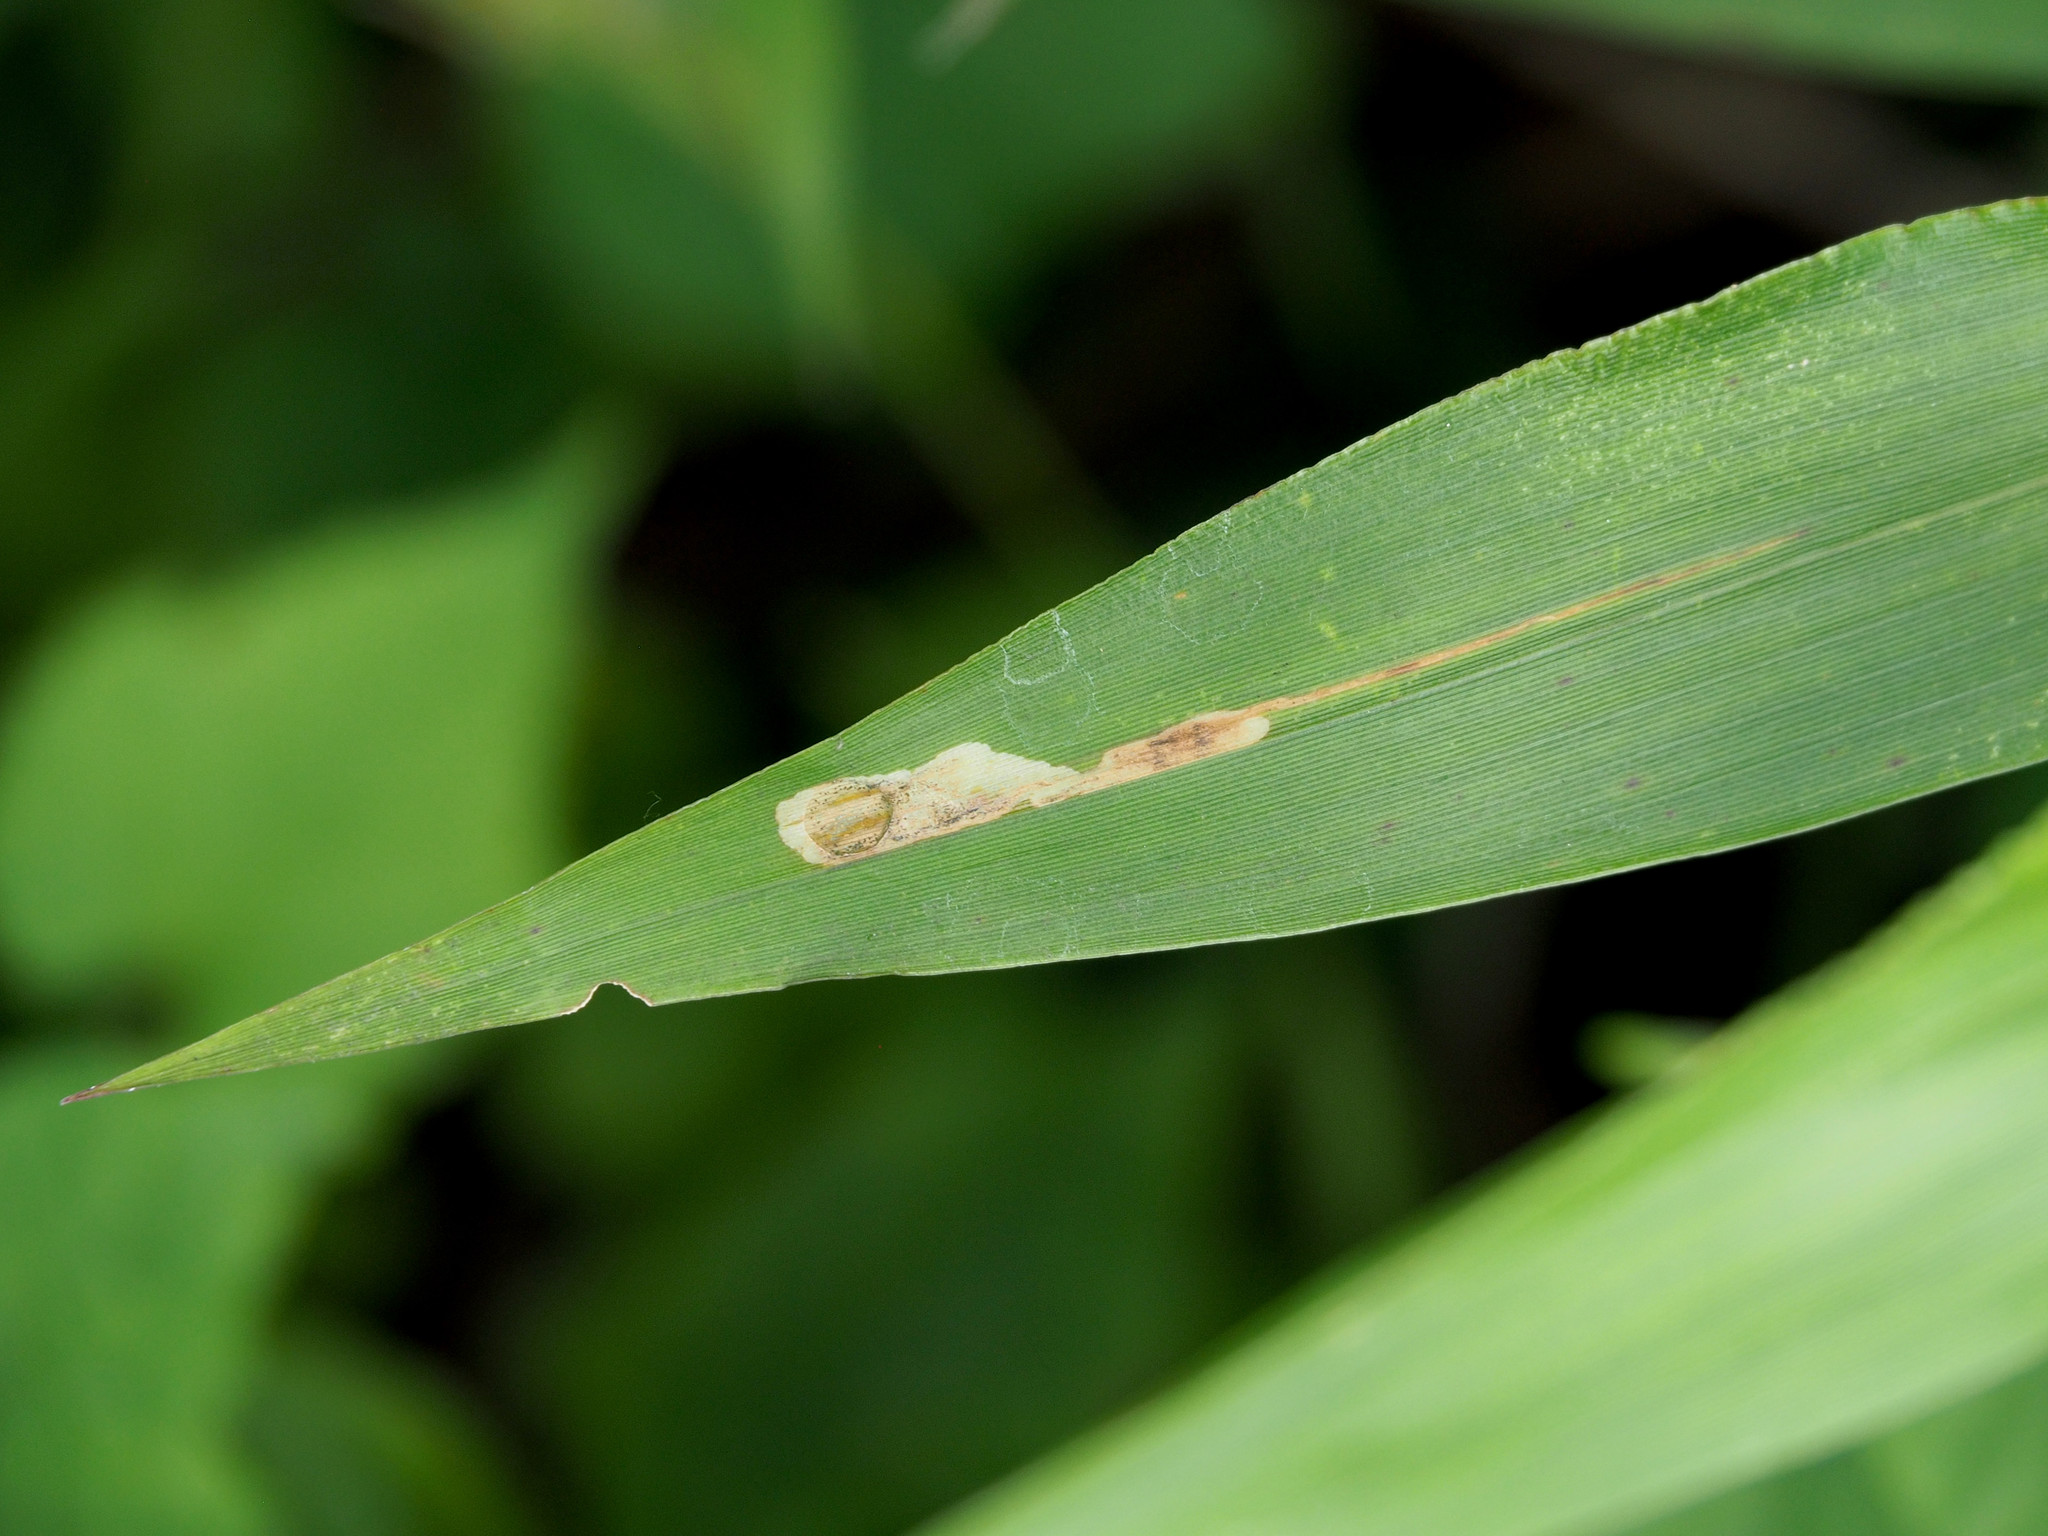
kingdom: Animalia
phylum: Arthropoda
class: Insecta
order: Lepidoptera
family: Heliodinidae
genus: Cycloplasis
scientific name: Cycloplasis panicifoliella
